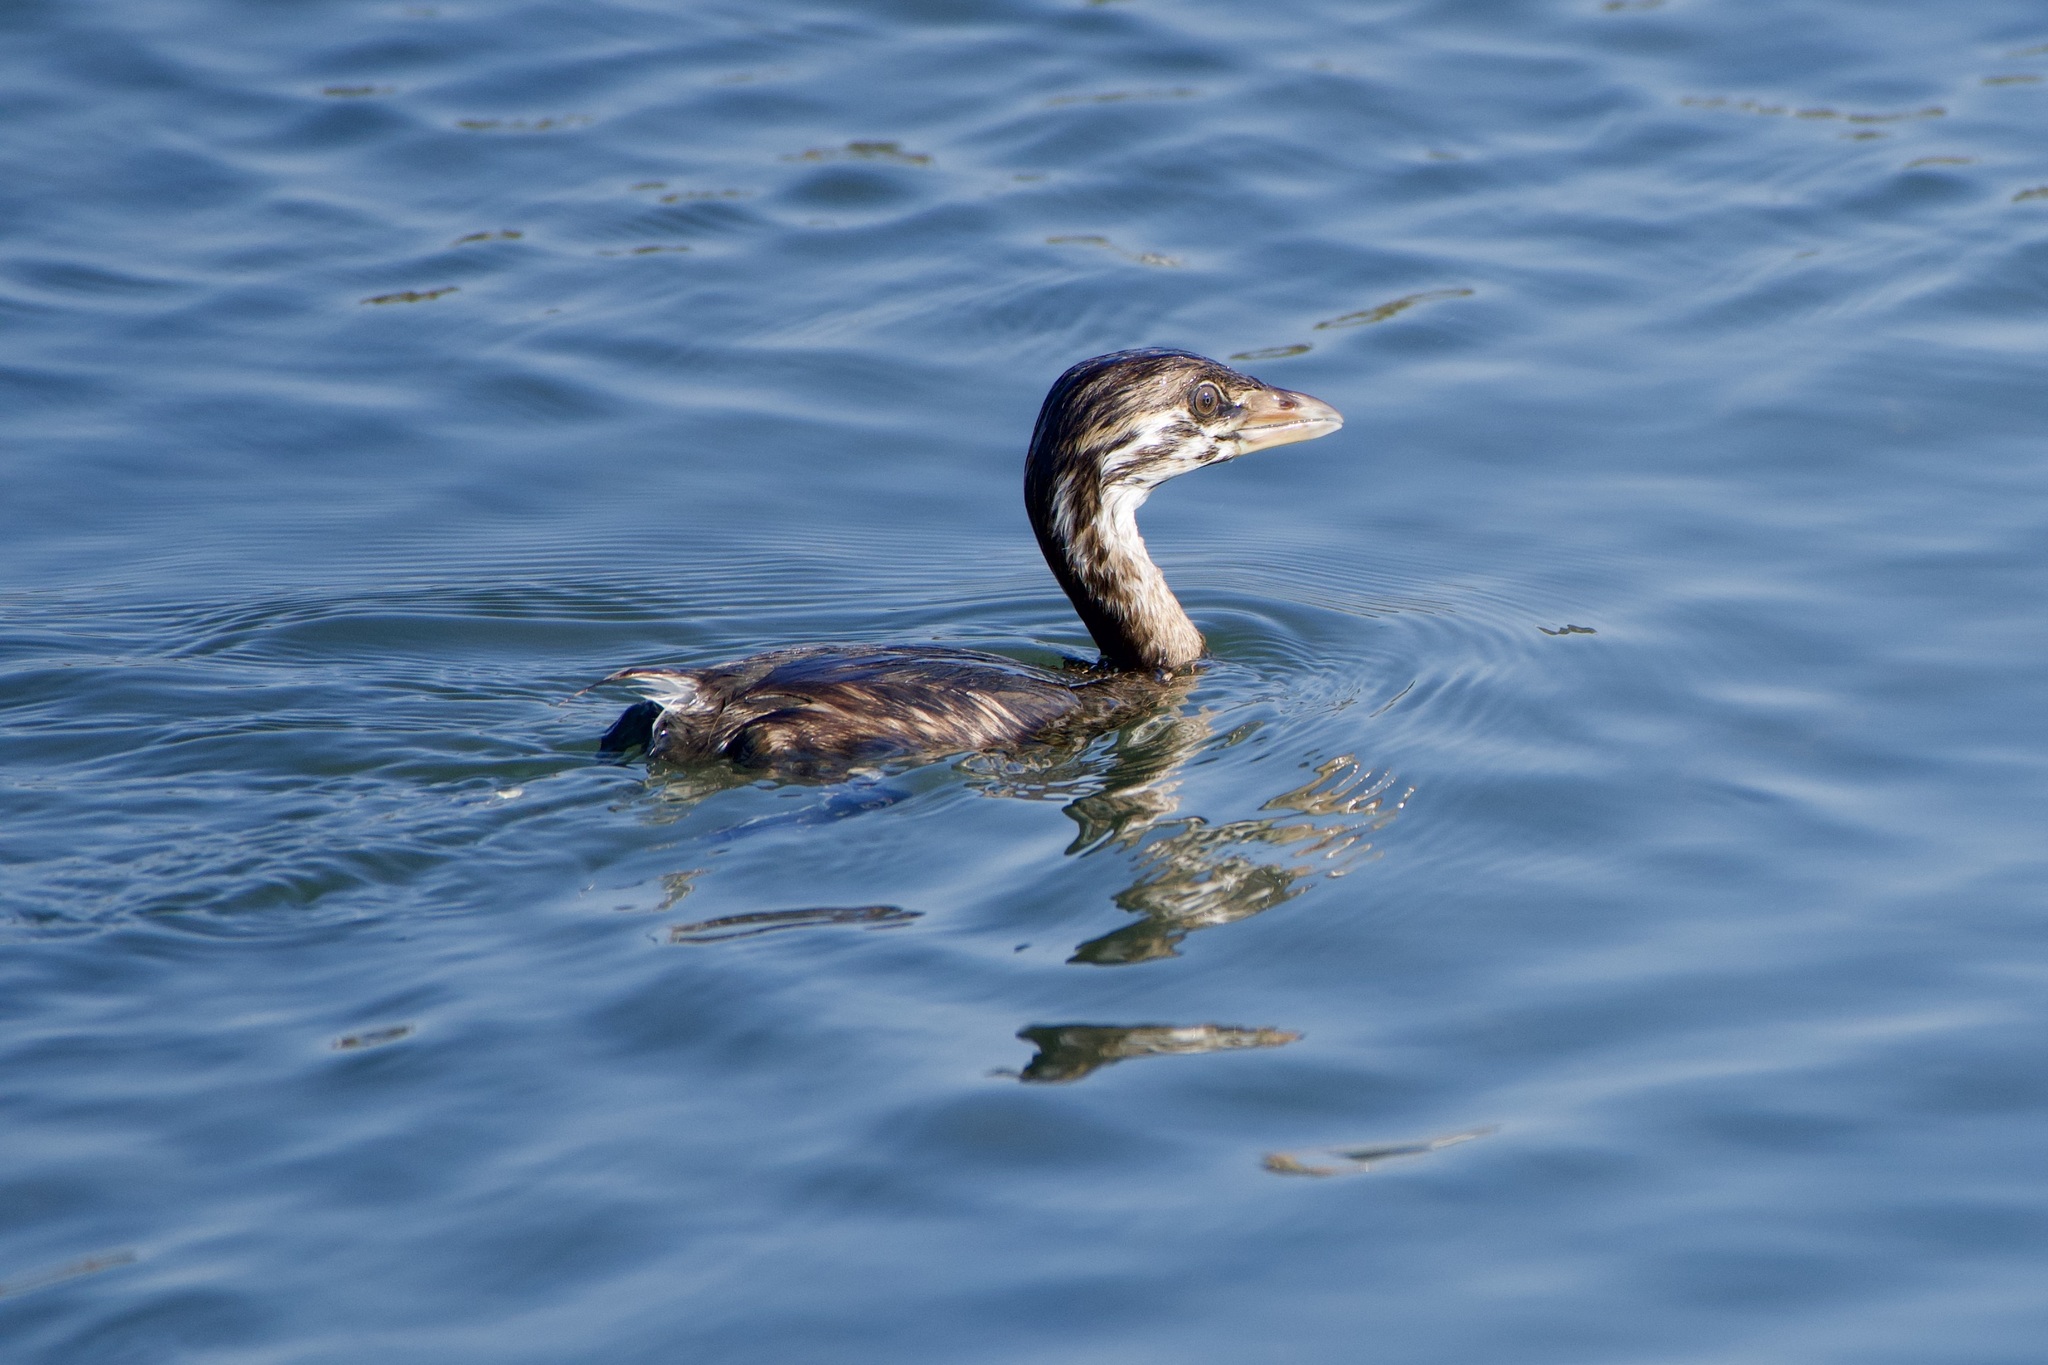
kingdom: Animalia
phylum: Chordata
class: Aves
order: Podicipediformes
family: Podicipedidae
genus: Podilymbus
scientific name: Podilymbus podiceps
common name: Pied-billed grebe
